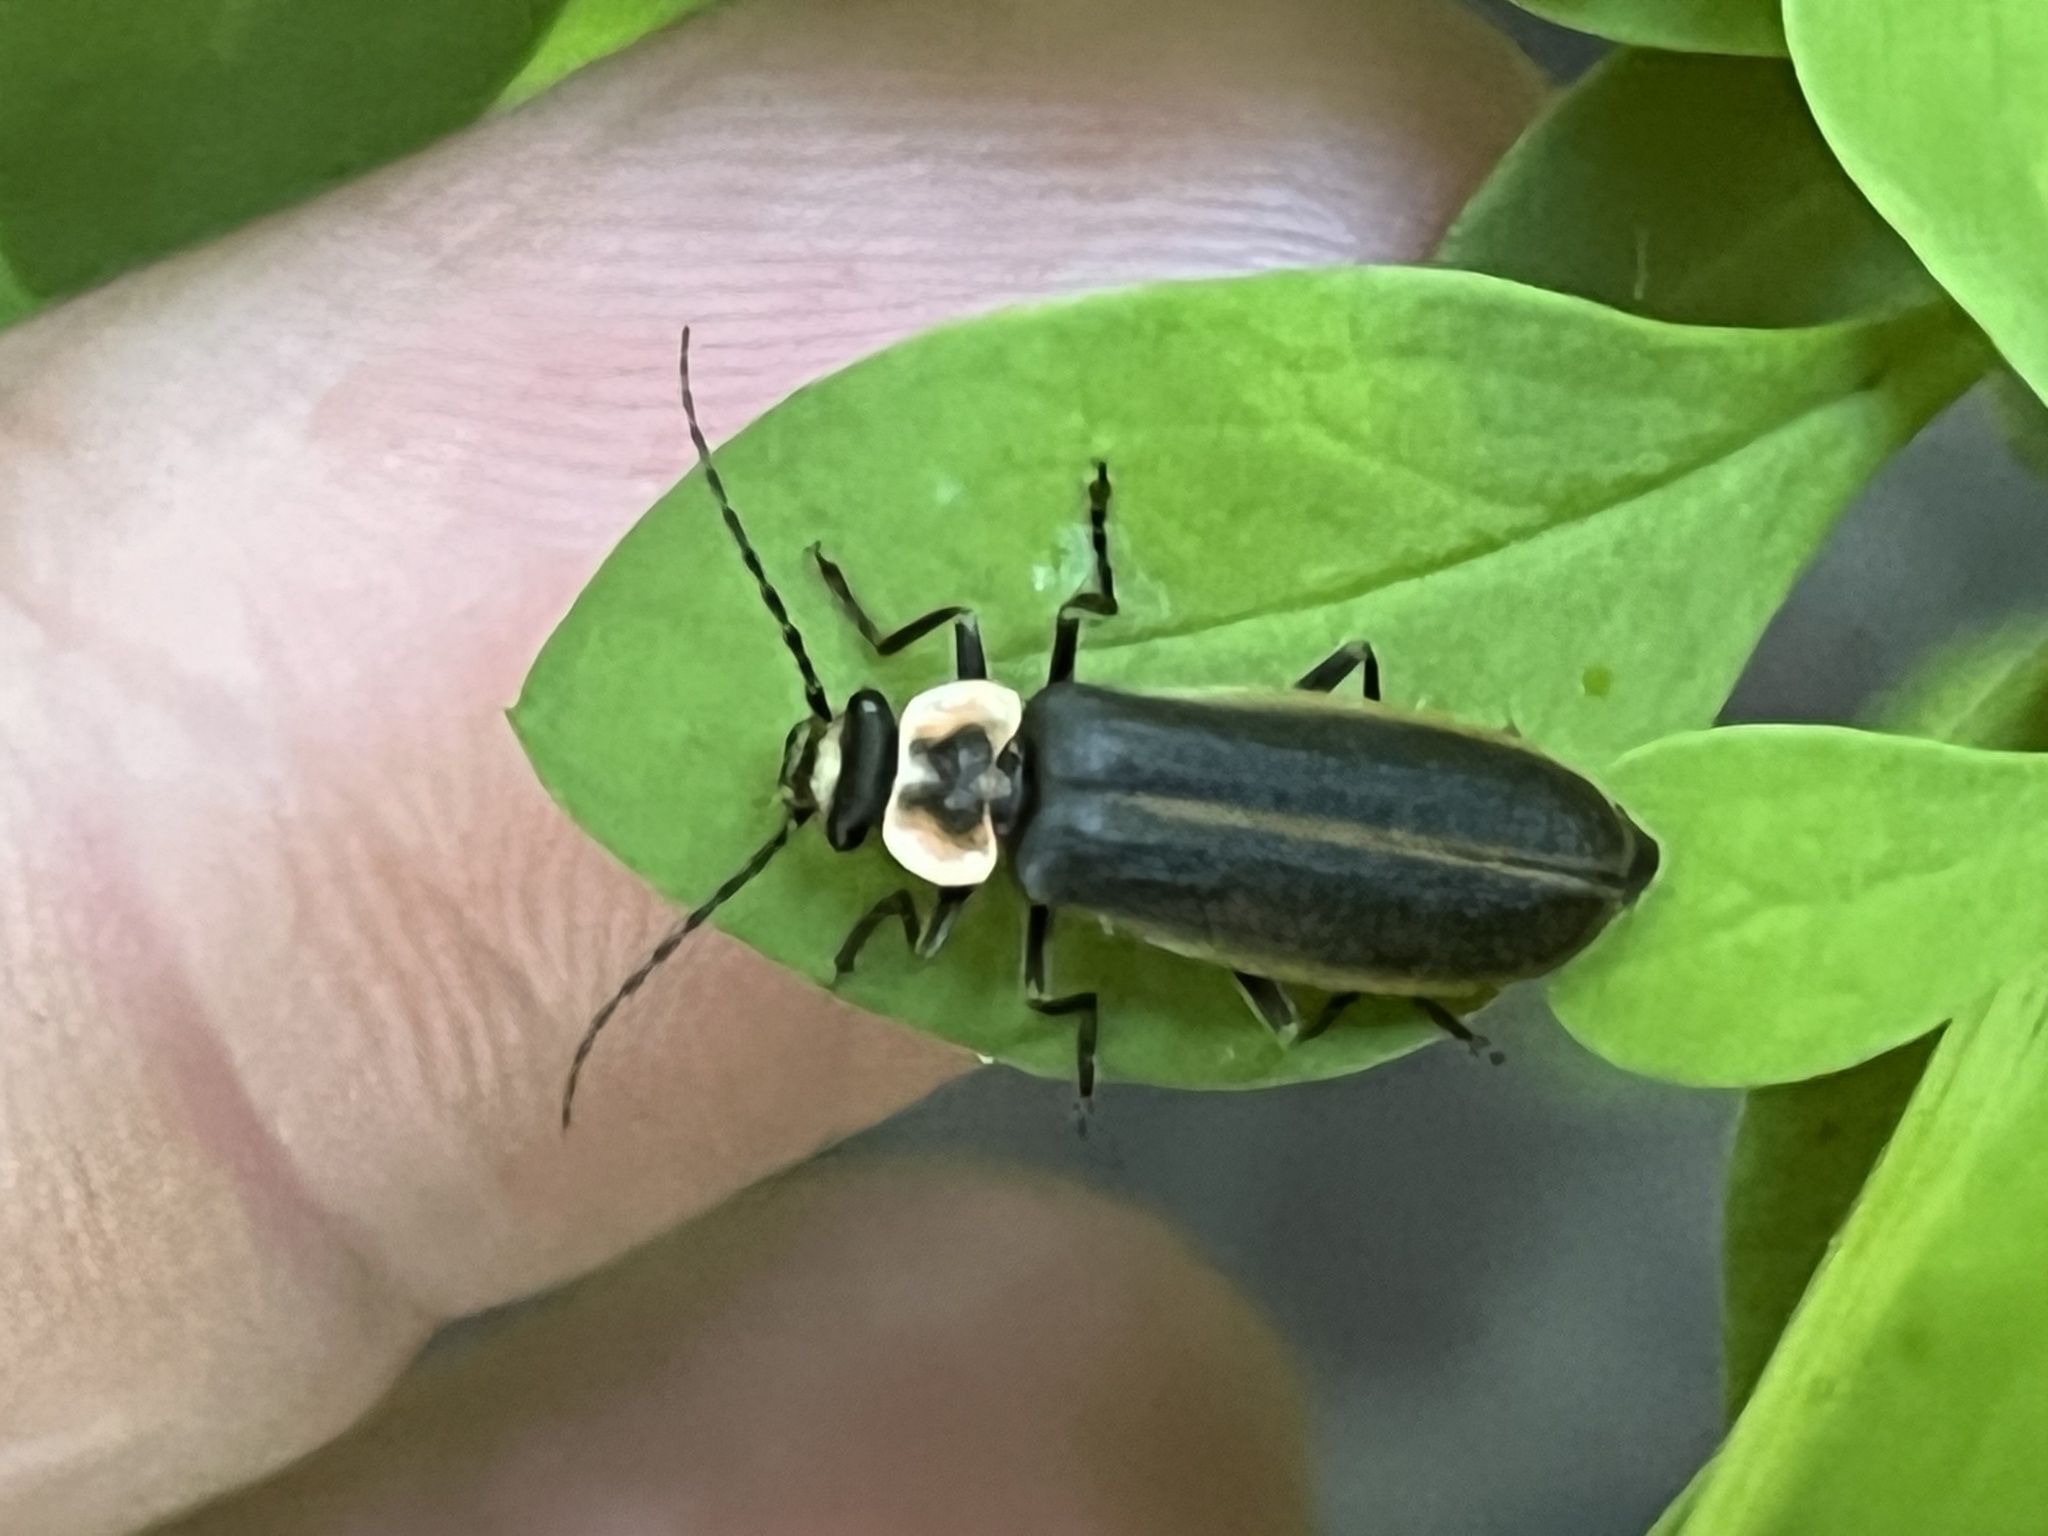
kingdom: Animalia
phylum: Arthropoda
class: Insecta
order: Coleoptera
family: Cantharidae
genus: Podabrus
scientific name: Podabrus brevicollis
